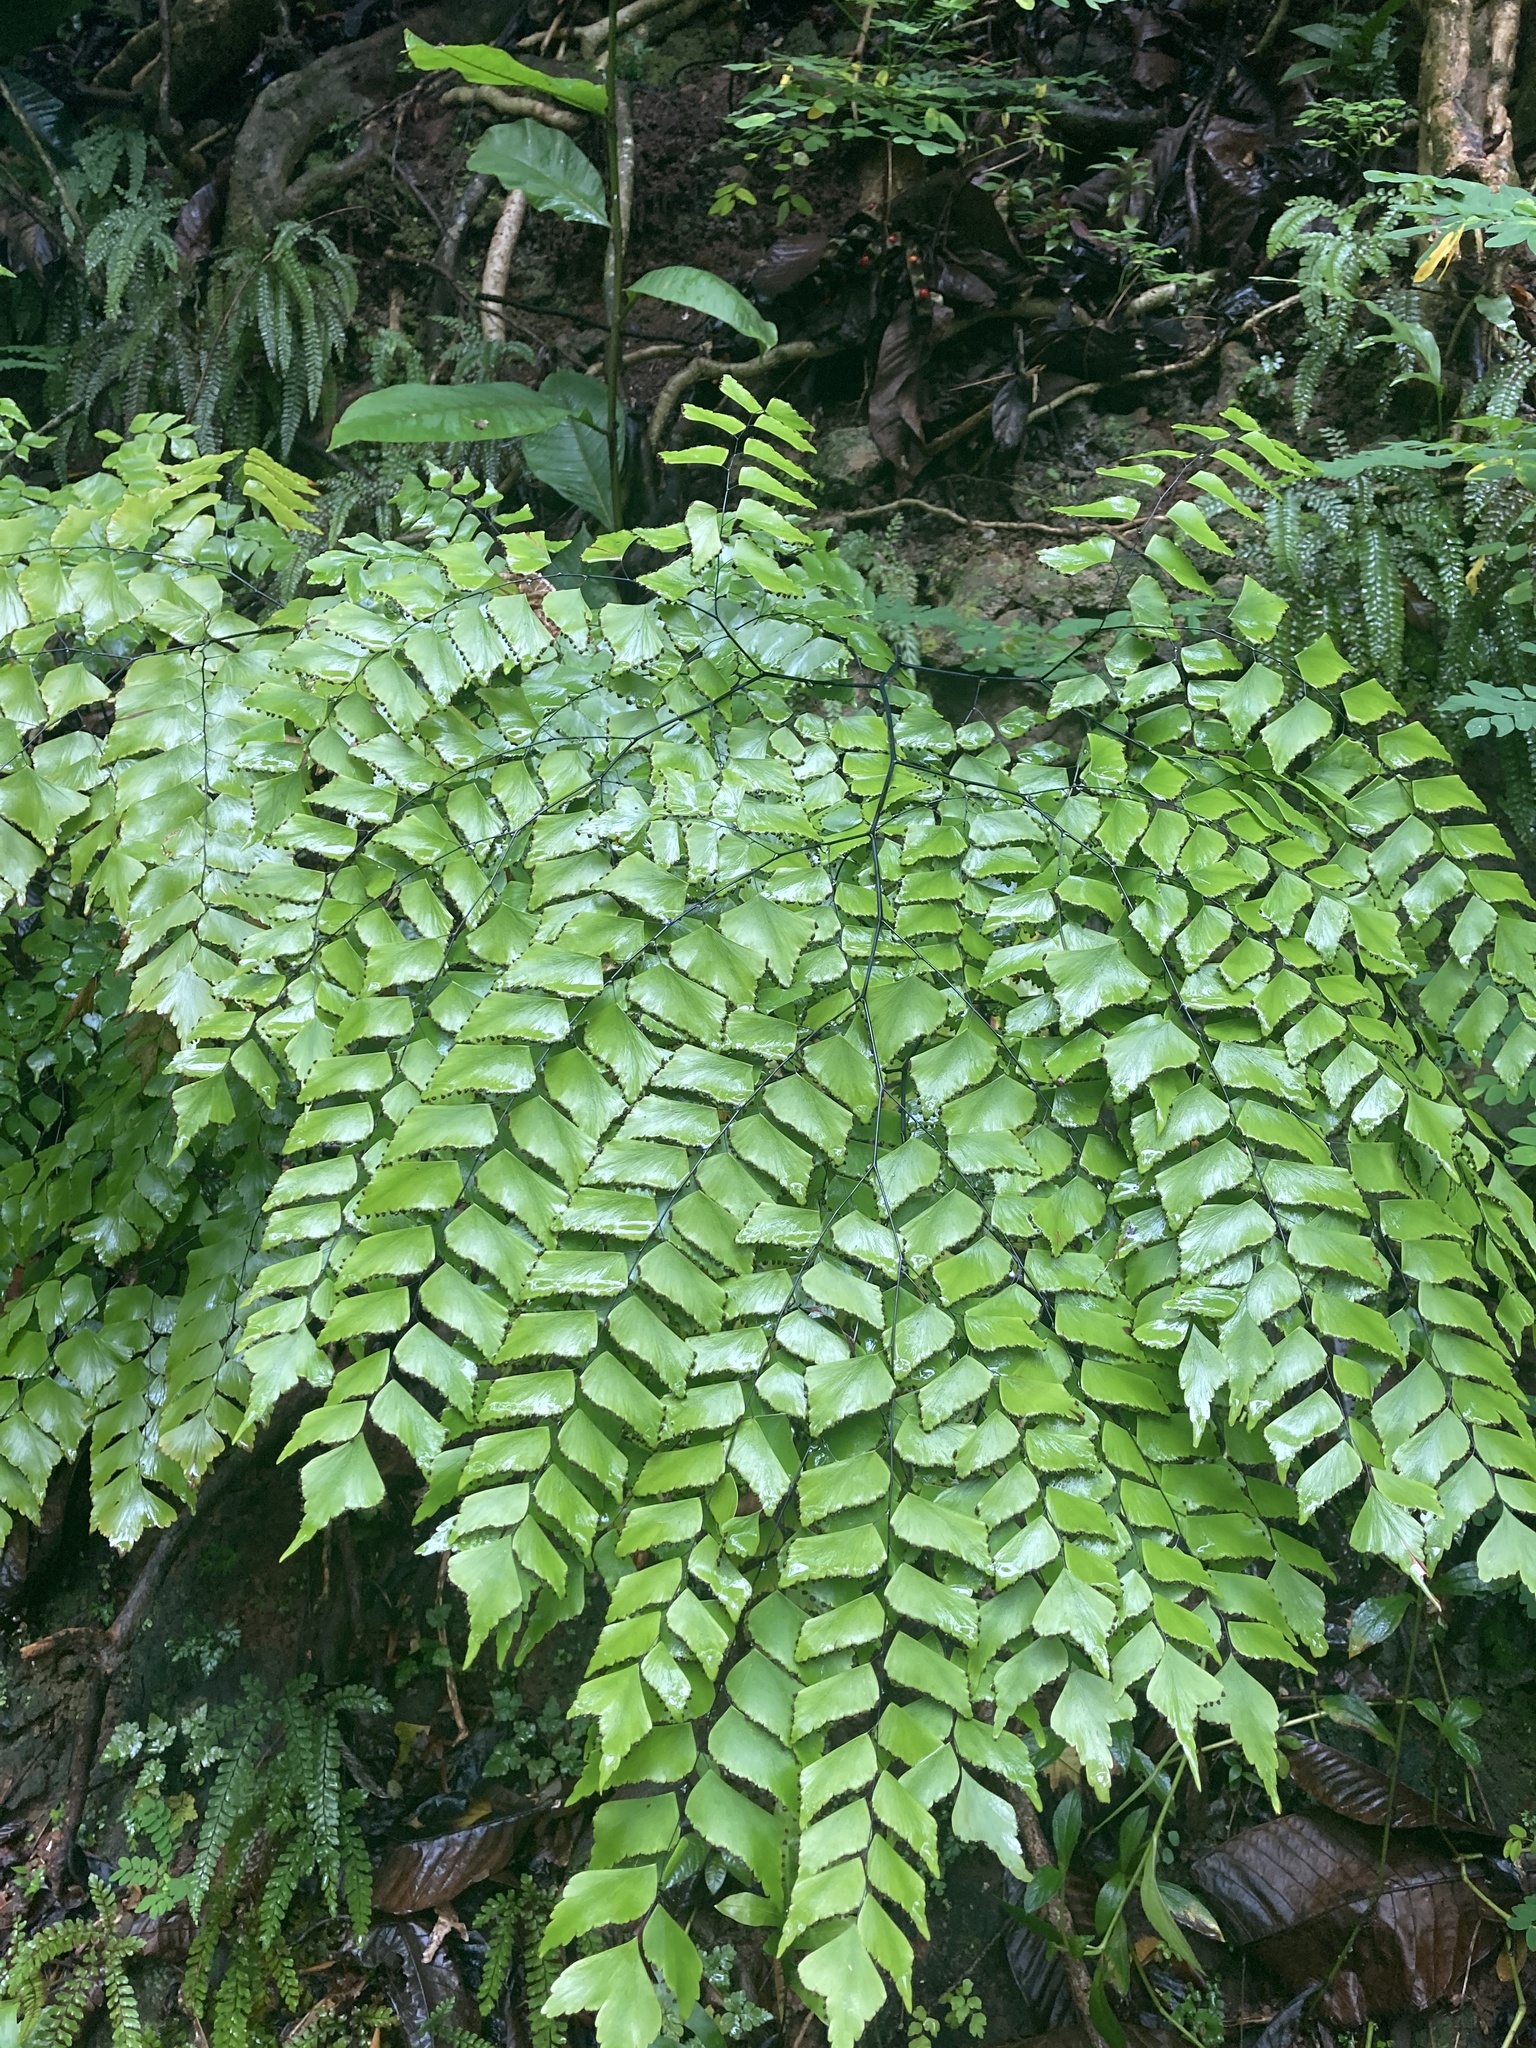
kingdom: Plantae
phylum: Tracheophyta
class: Polypodiopsida
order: Polypodiales
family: Pteridaceae
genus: Adiantum
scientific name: Adiantum trapeziforme
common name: Diamond maidenhair
